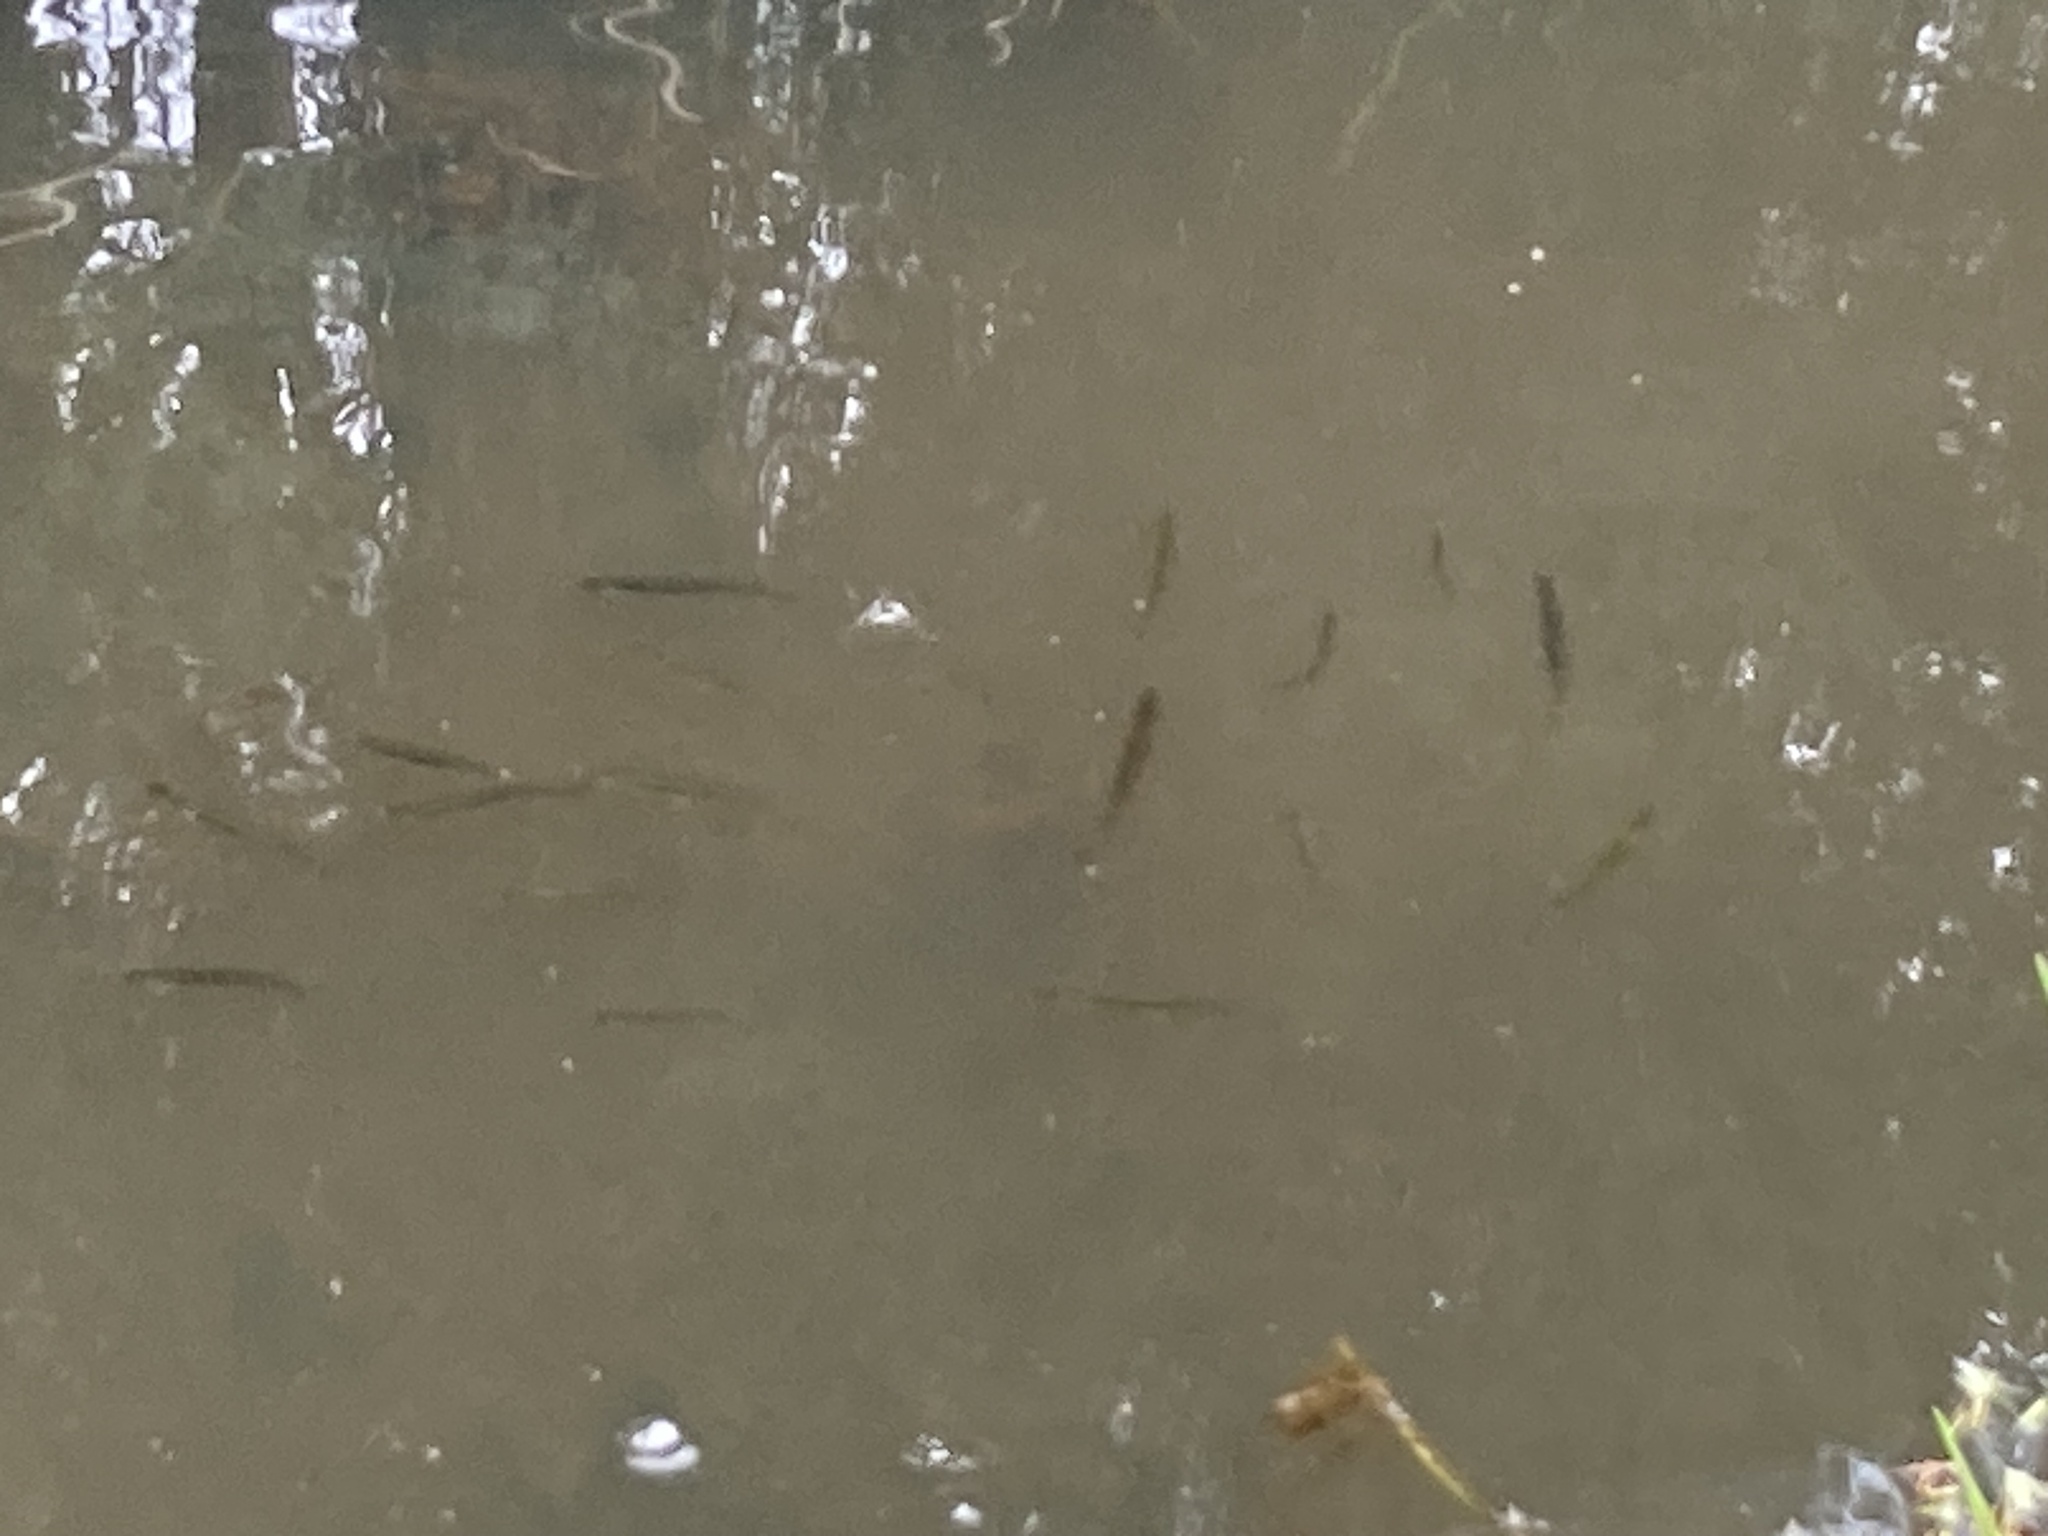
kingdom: Animalia
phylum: Chordata
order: Osmeriformes
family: Galaxiidae
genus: Galaxias
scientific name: Galaxias maculatus
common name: Common galaxias
